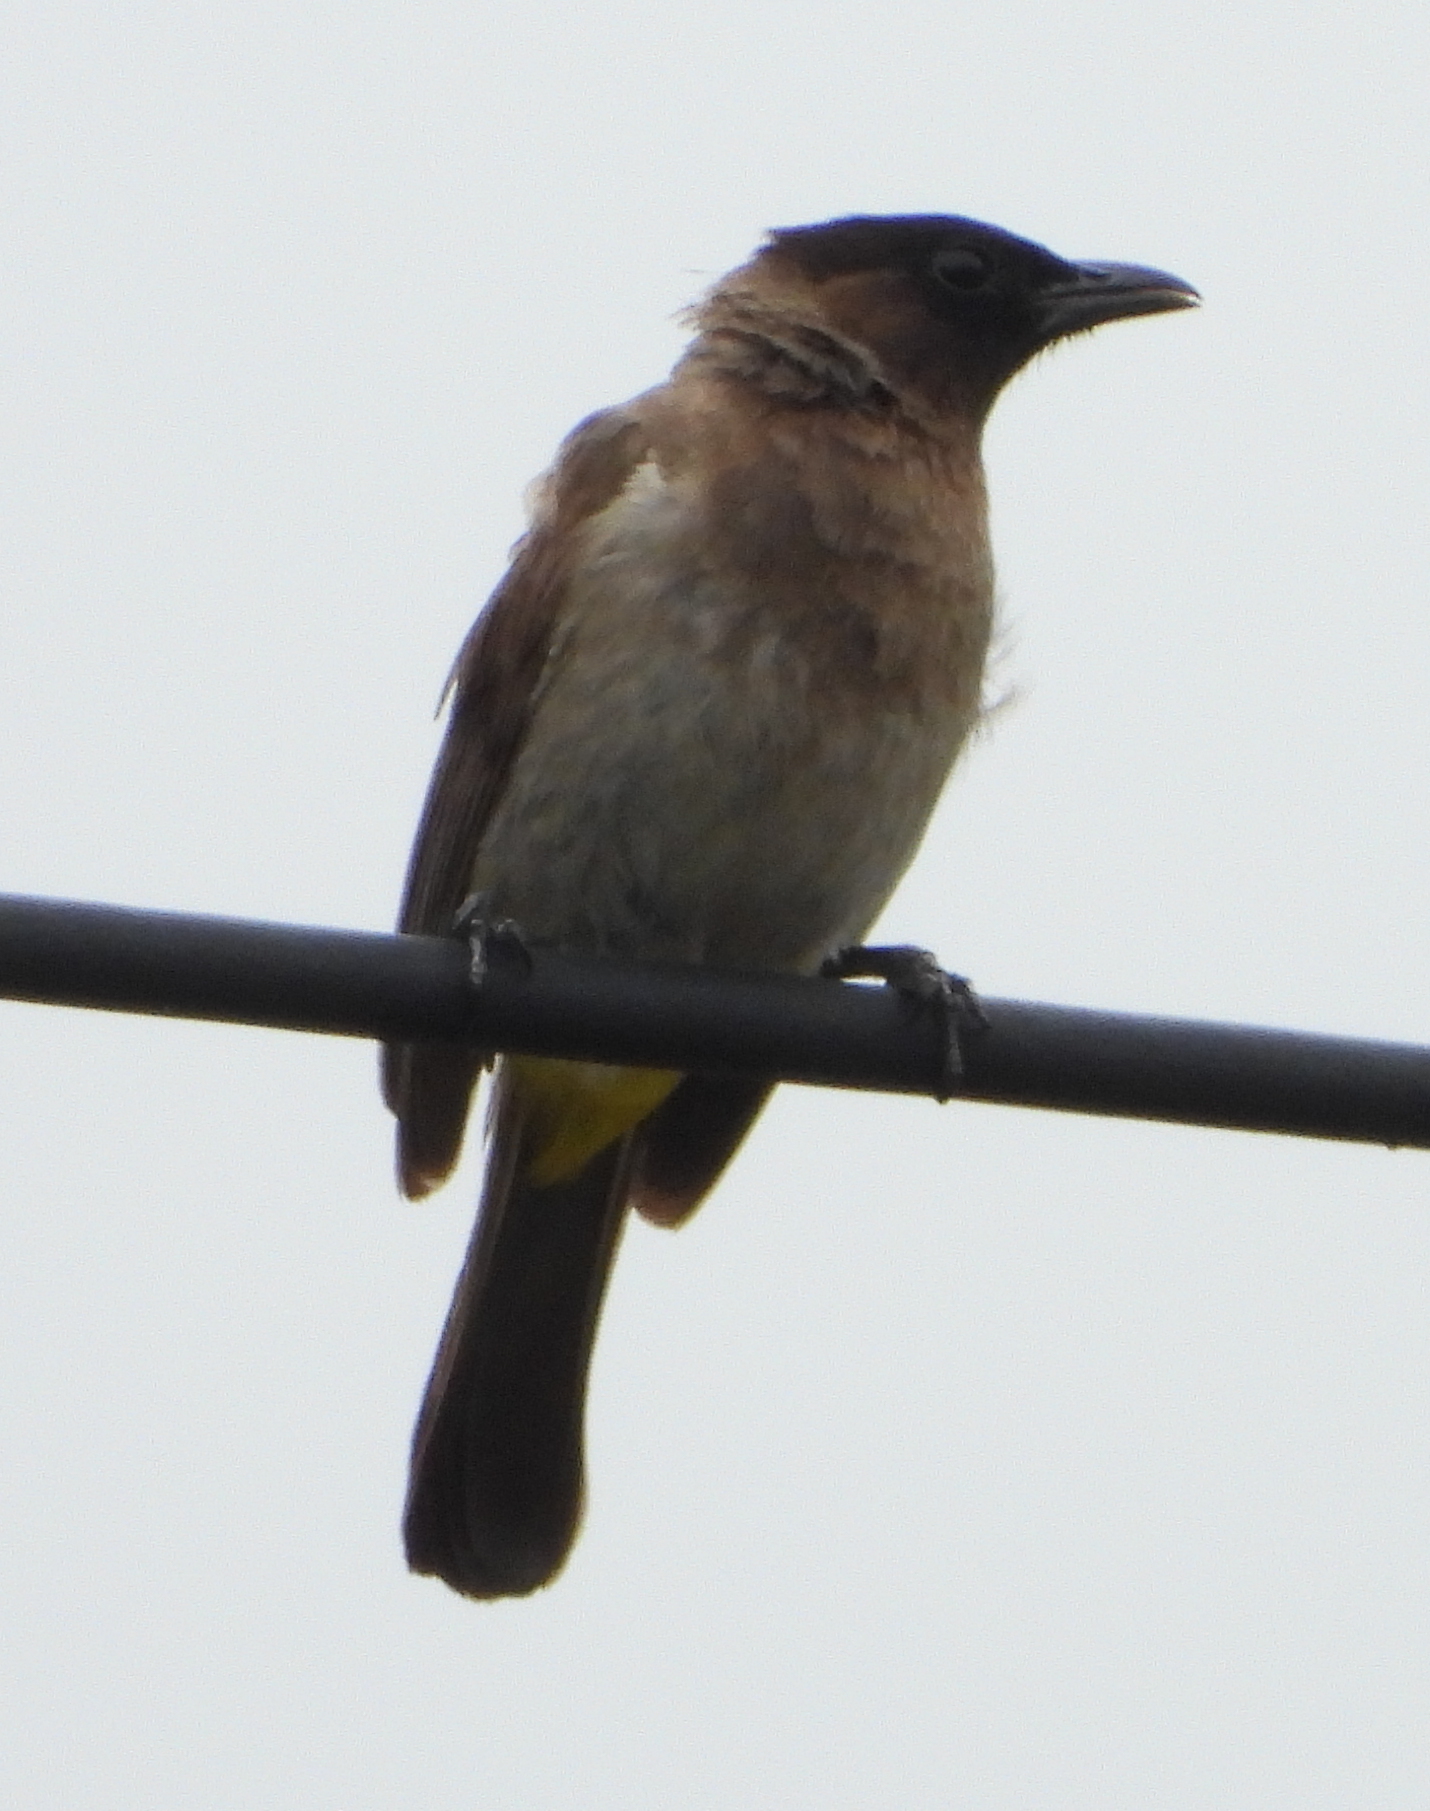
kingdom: Animalia
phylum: Chordata
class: Aves
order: Passeriformes
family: Pycnonotidae
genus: Pycnonotus
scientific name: Pycnonotus barbatus
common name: Common bulbul
